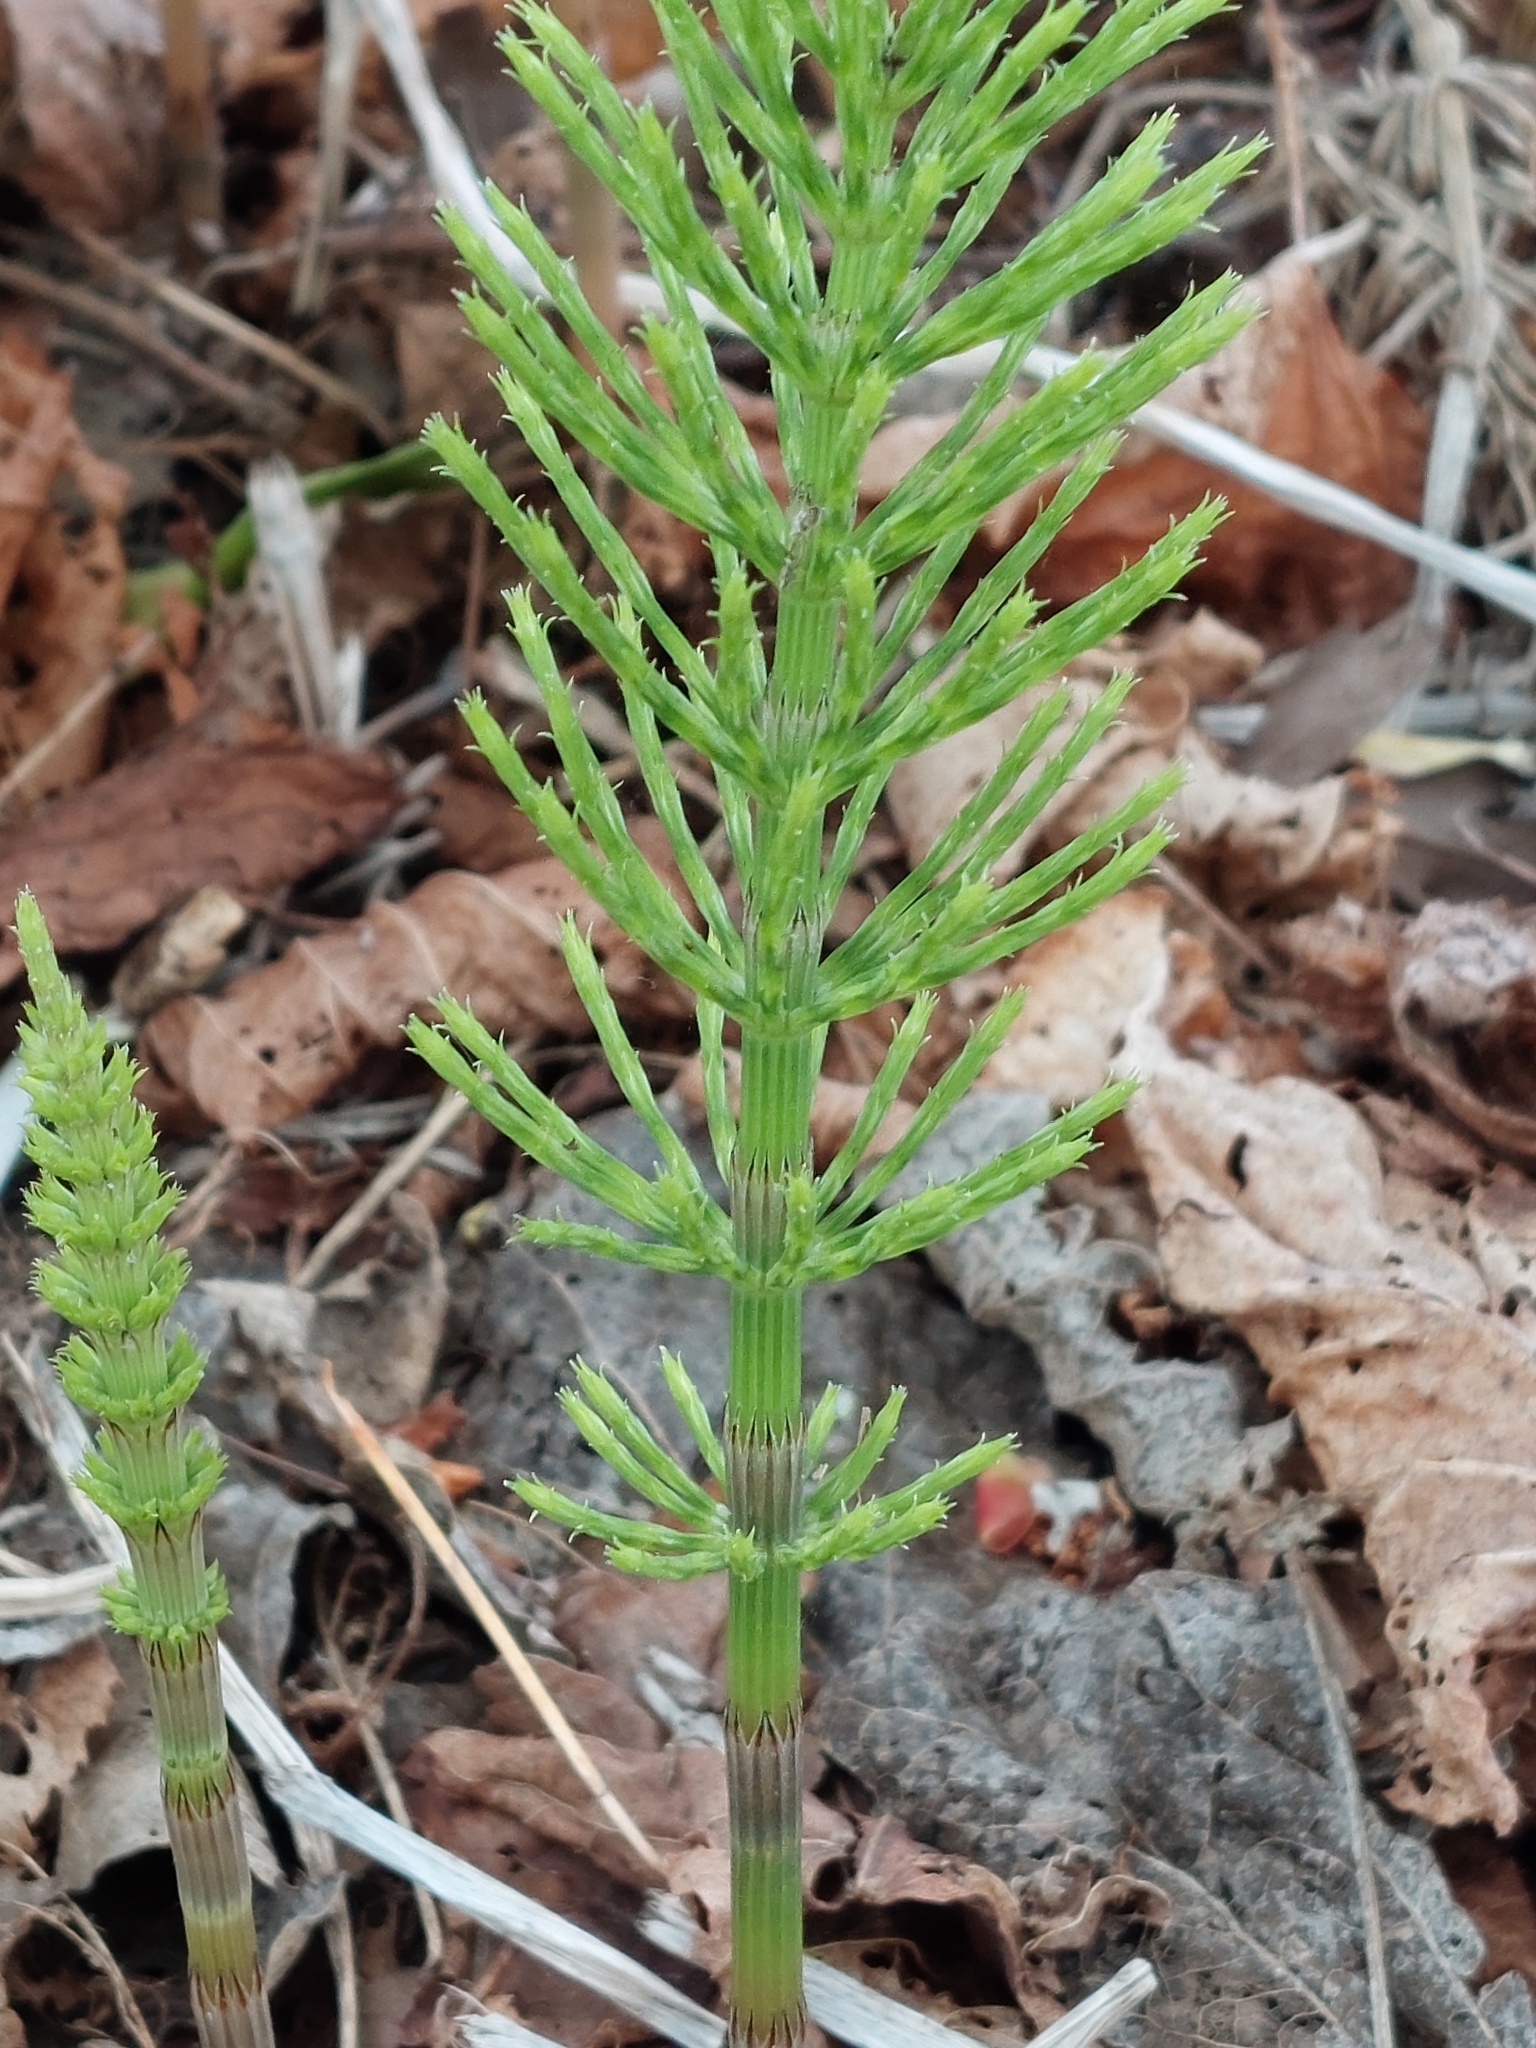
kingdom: Plantae
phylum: Tracheophyta
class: Polypodiopsida
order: Equisetales
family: Equisetaceae
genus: Equisetum
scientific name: Equisetum arvense
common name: Field horsetail
